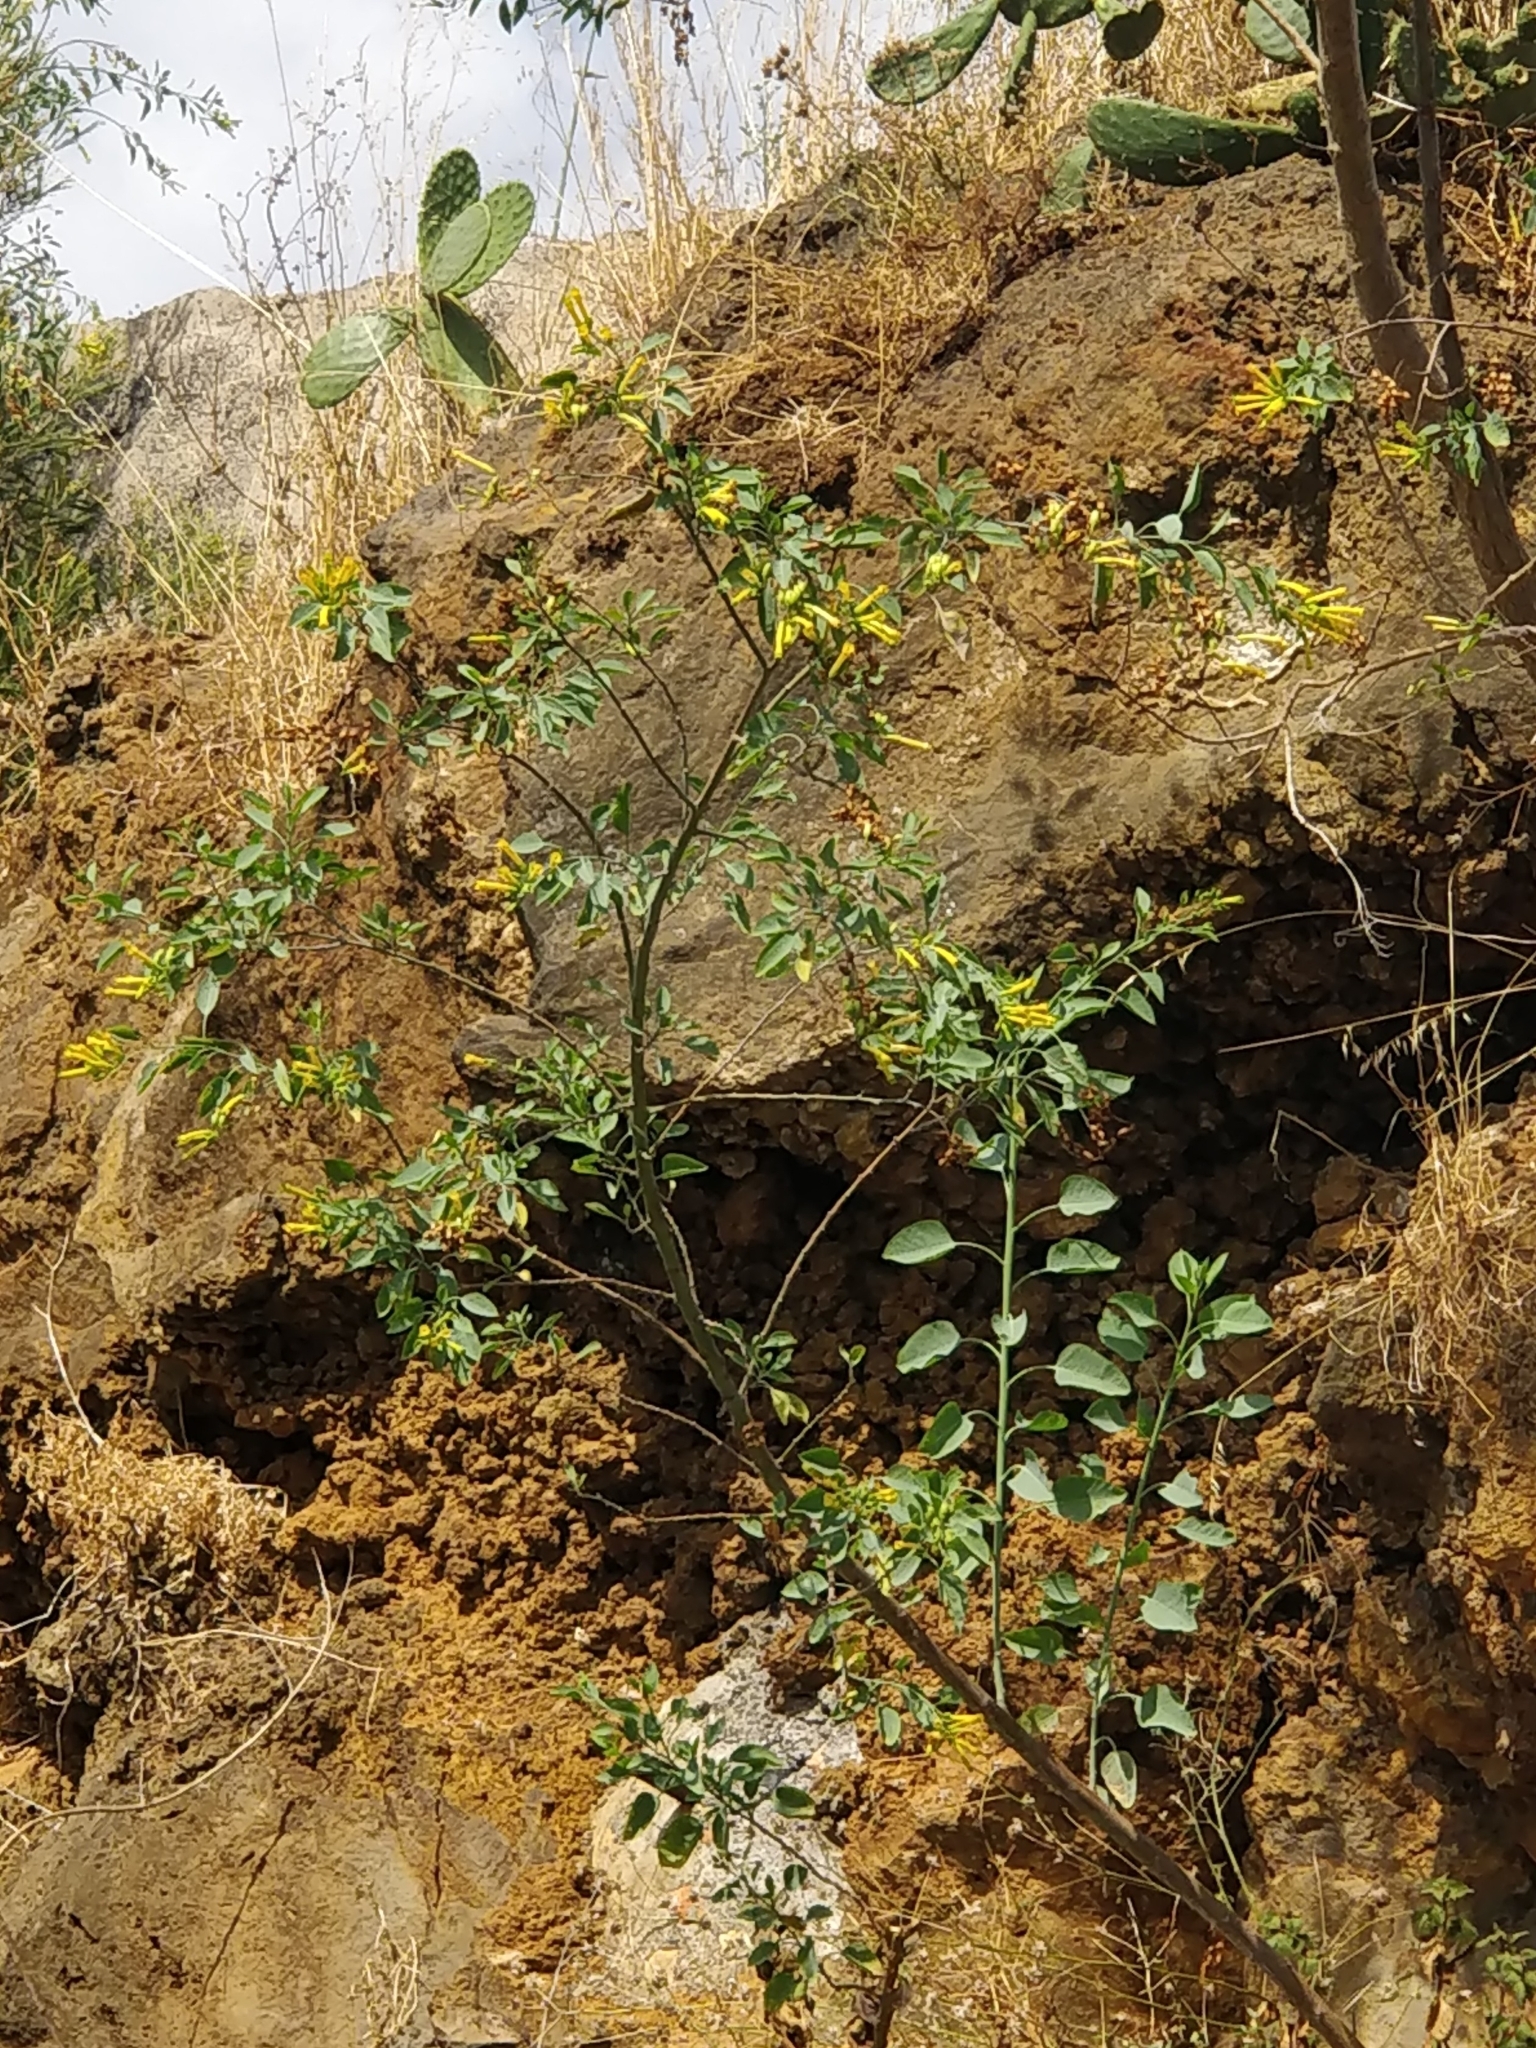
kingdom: Plantae
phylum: Tracheophyta
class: Magnoliopsida
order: Solanales
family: Solanaceae
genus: Nicotiana
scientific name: Nicotiana glauca
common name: Tree tobacco
